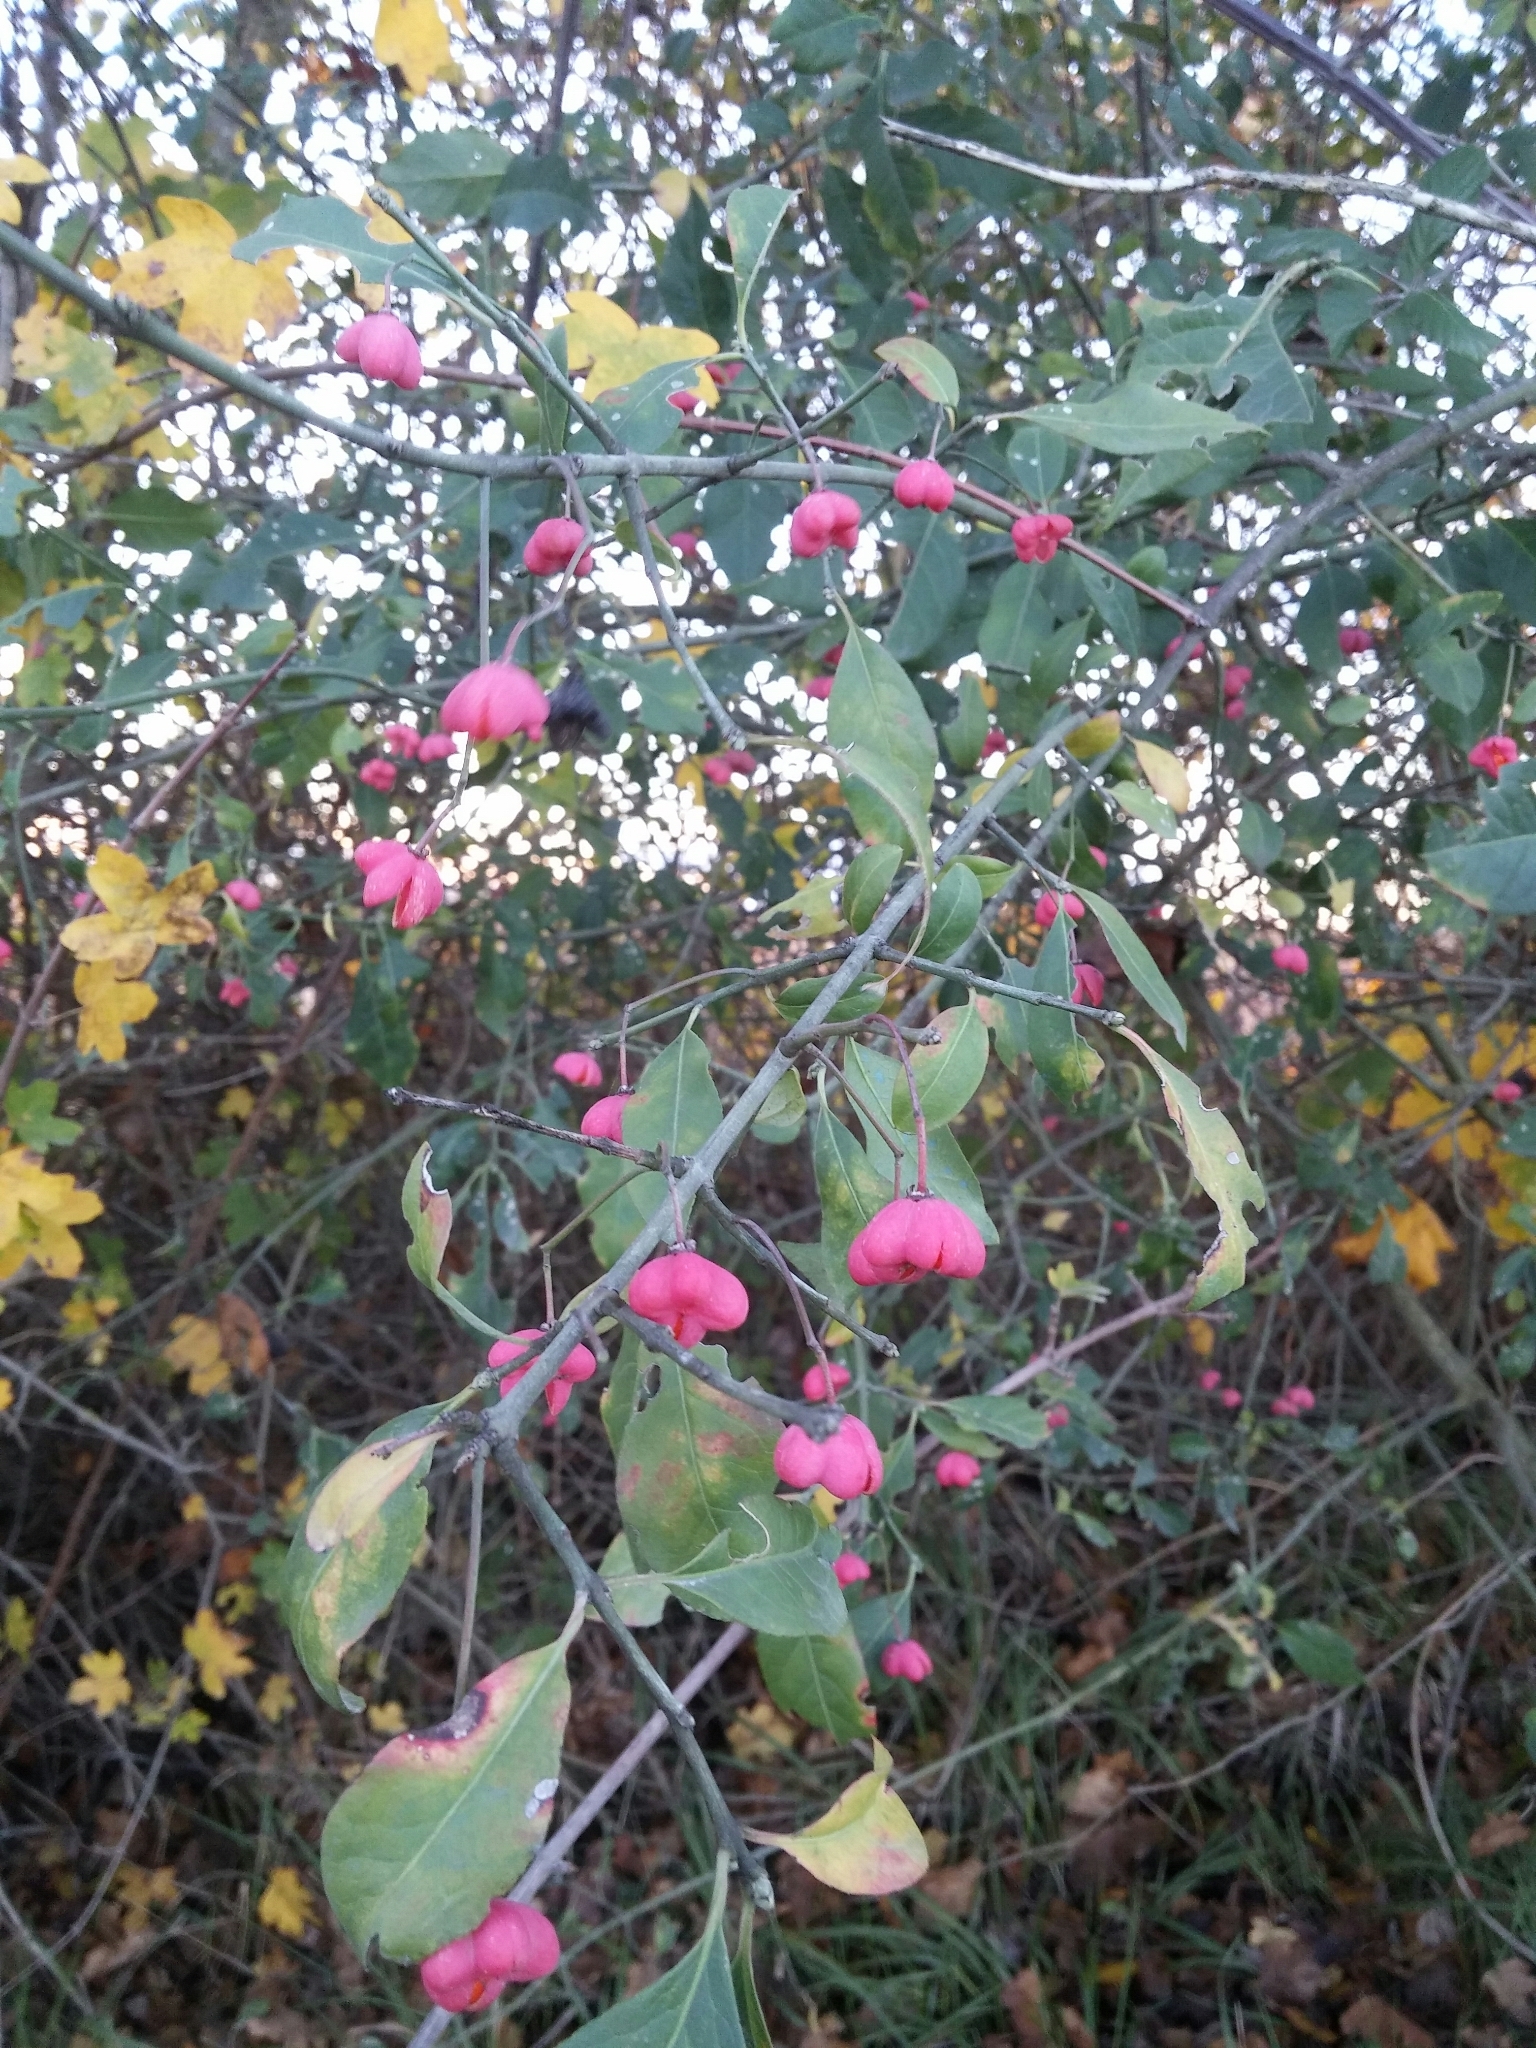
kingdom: Plantae
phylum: Tracheophyta
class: Magnoliopsida
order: Celastrales
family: Celastraceae
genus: Euonymus
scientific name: Euonymus europaeus
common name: Spindle
